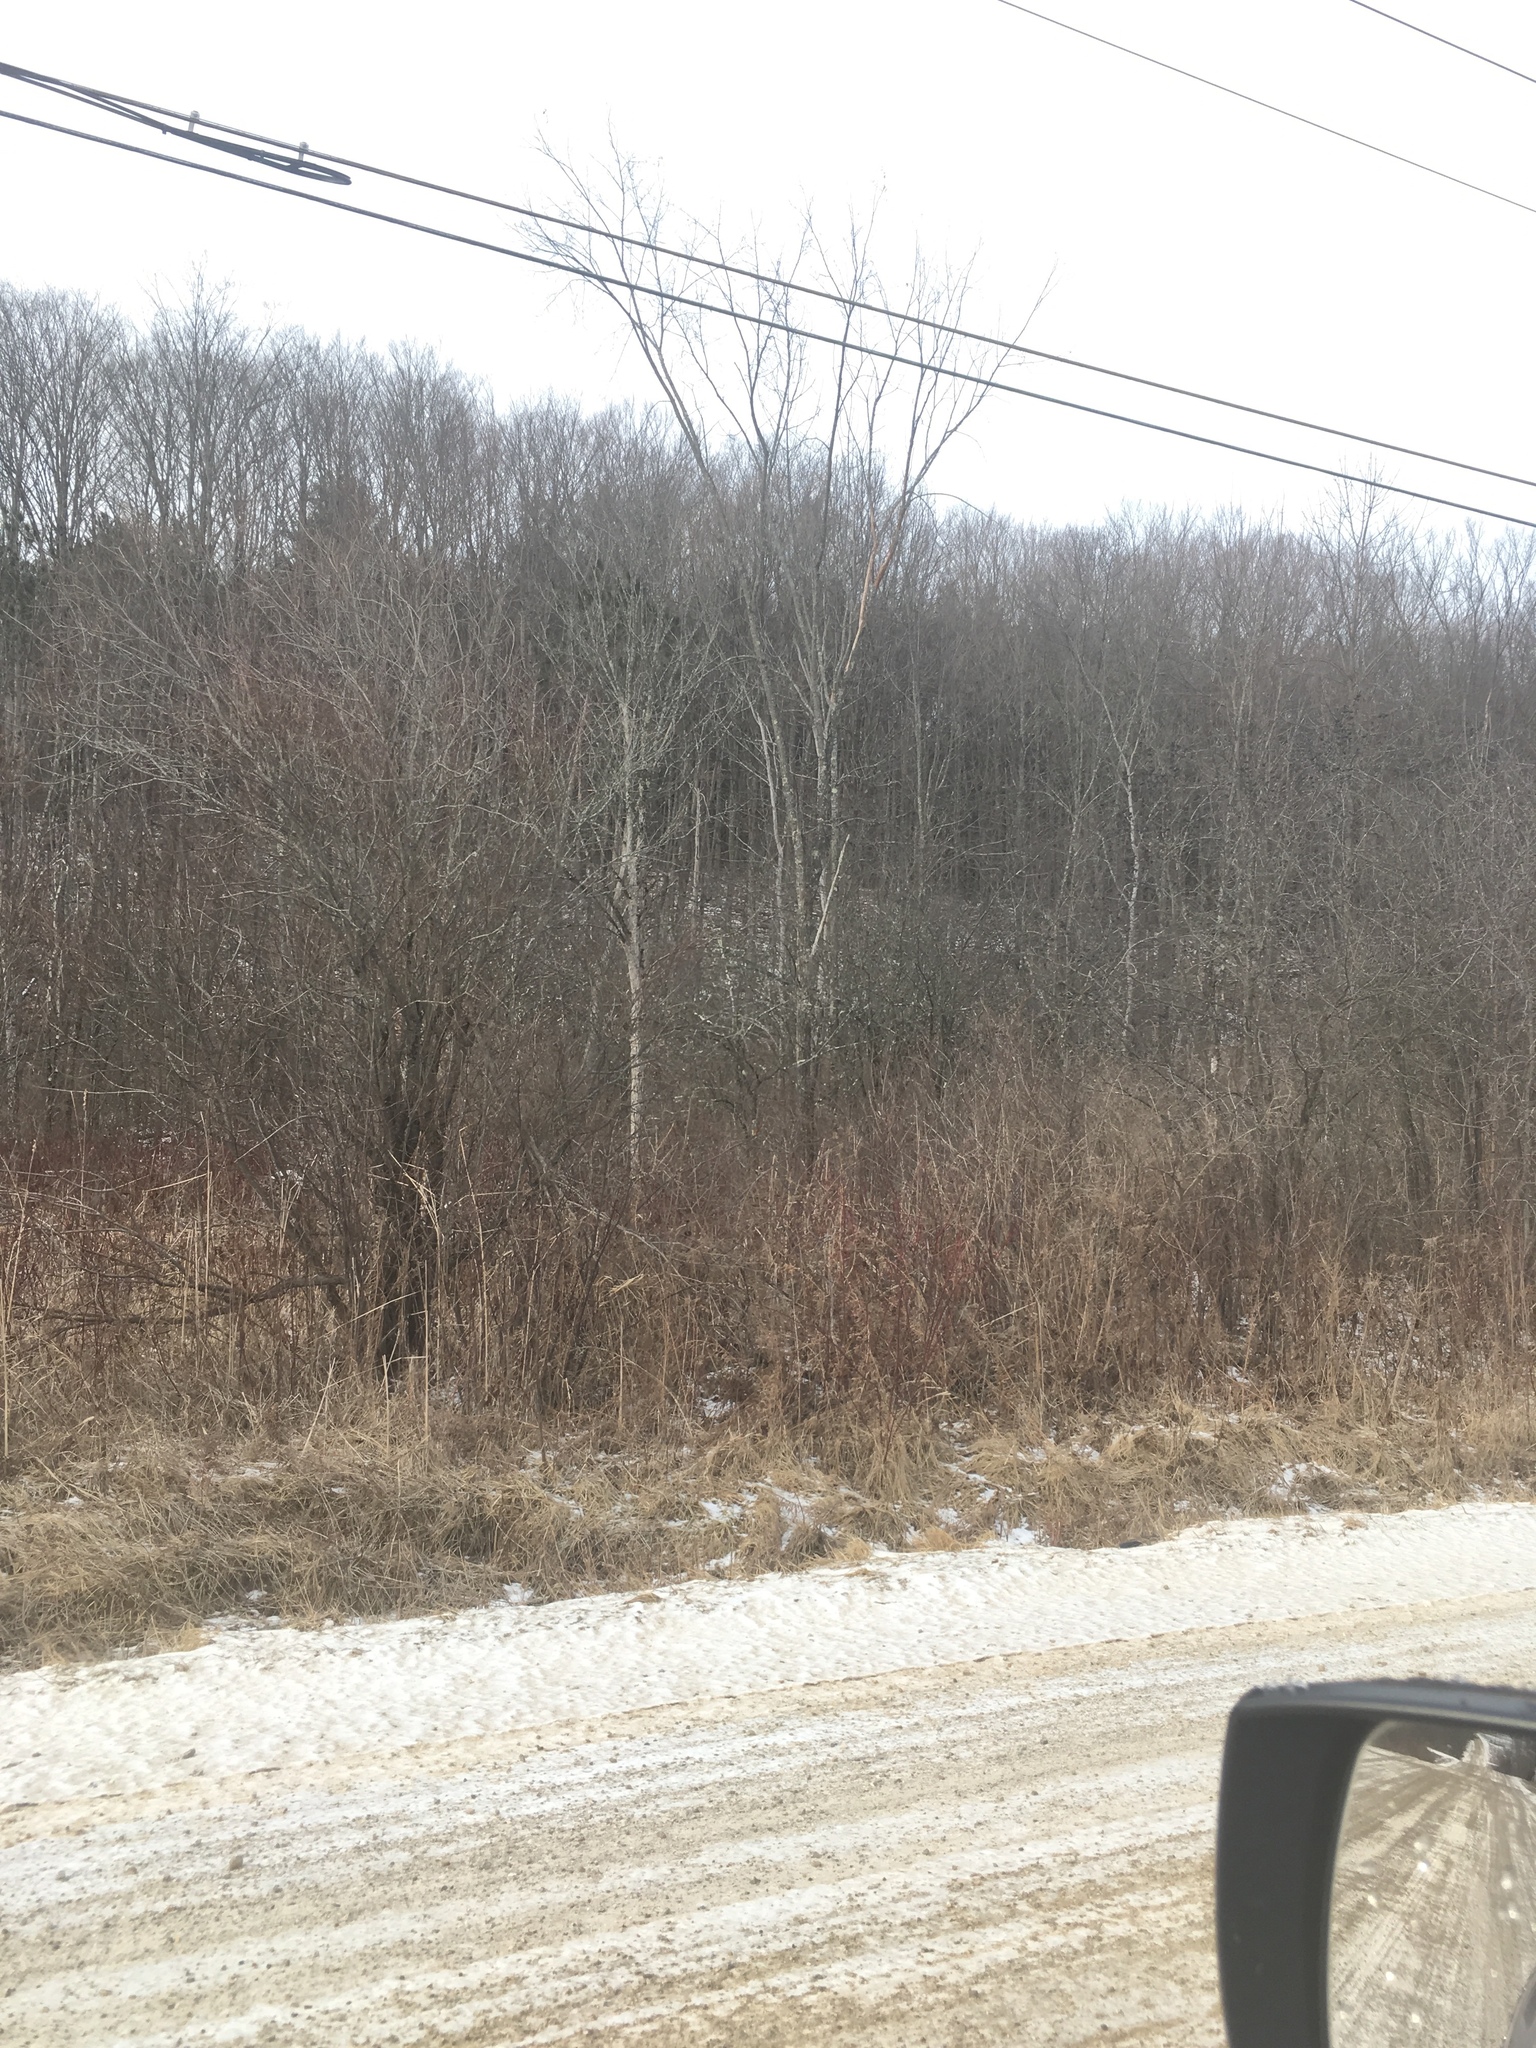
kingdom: Plantae
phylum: Tracheophyta
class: Magnoliopsida
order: Rosales
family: Ulmaceae
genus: Ulmus
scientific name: Ulmus americana
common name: American elm
